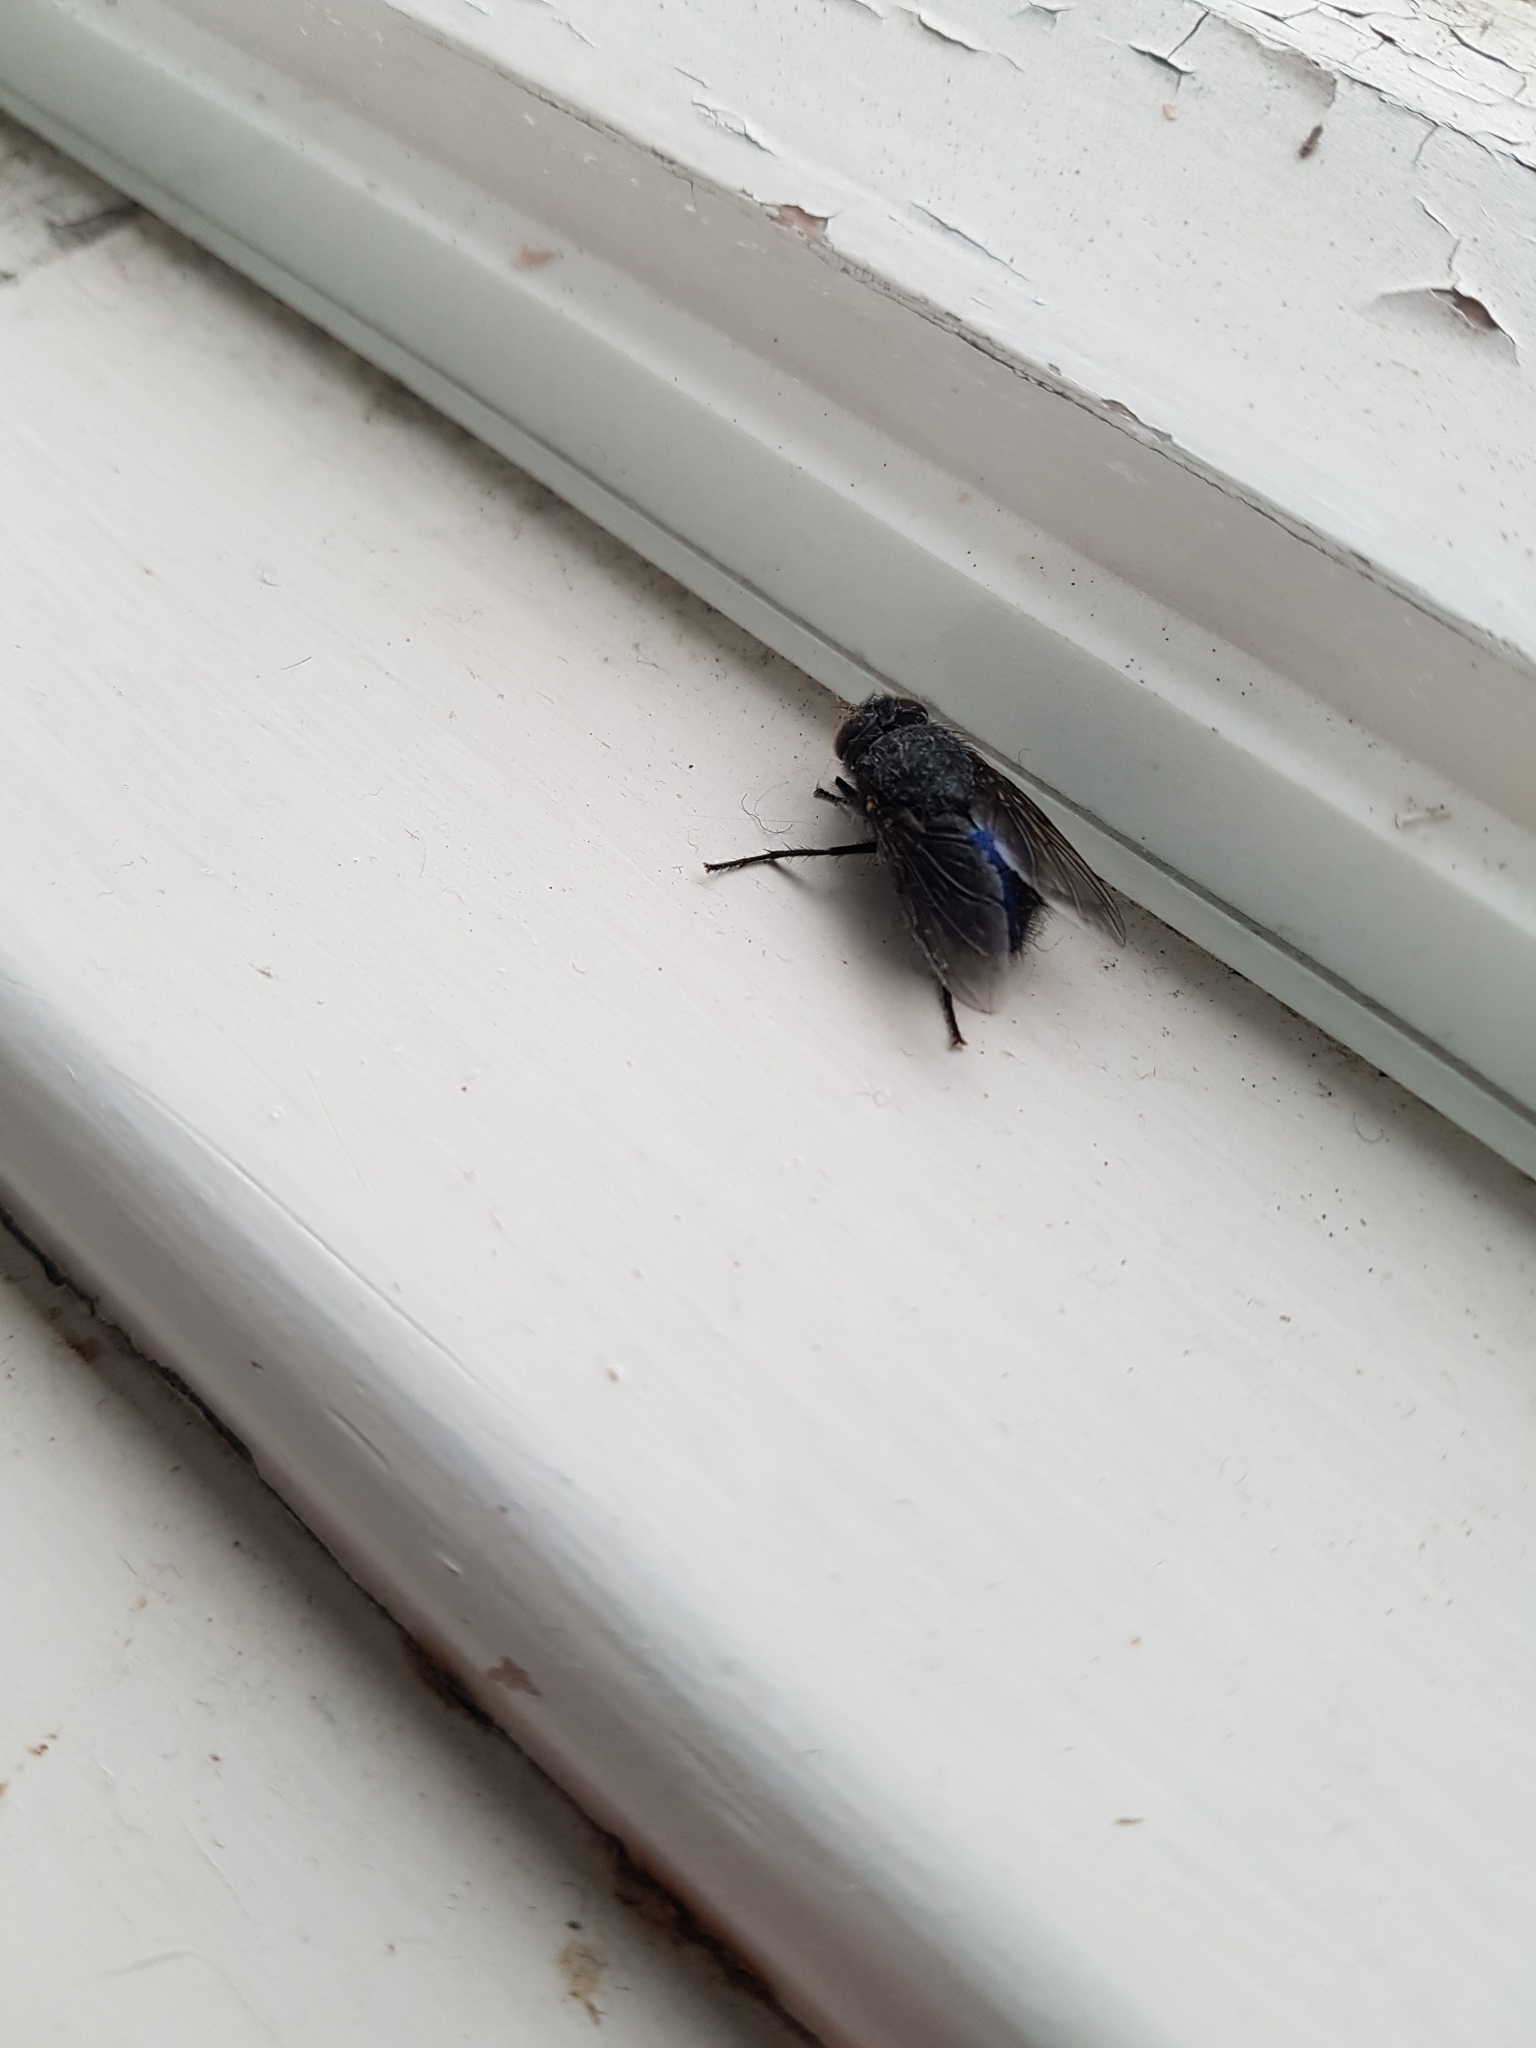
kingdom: Animalia
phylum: Arthropoda
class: Insecta
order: Diptera
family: Calliphoridae
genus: Calliphora
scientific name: Calliphora quadrimaculata
